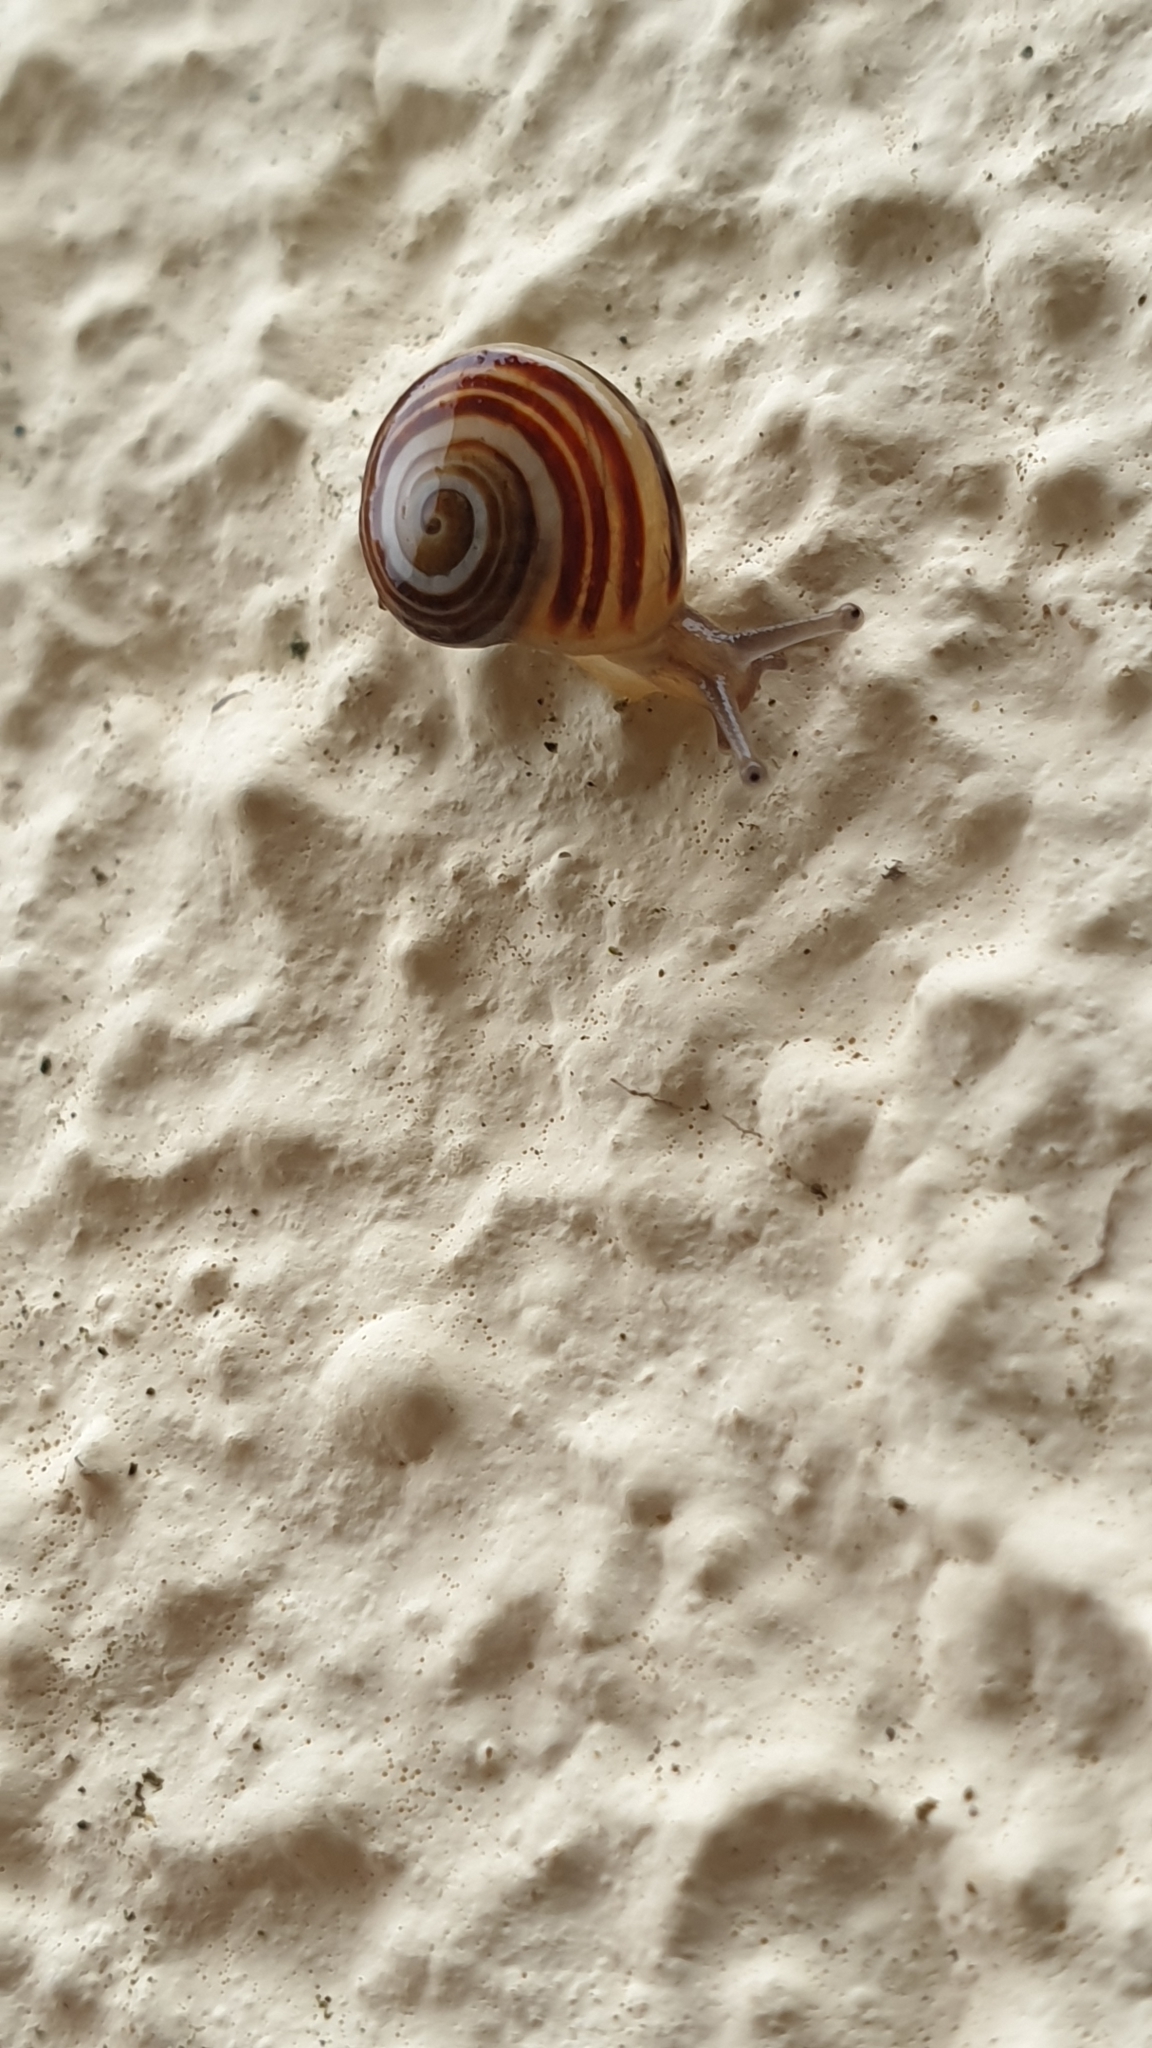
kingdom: Animalia
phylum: Mollusca
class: Gastropoda
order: Stylommatophora
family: Helicidae
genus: Pseudotachea
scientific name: Pseudotachea splendida
